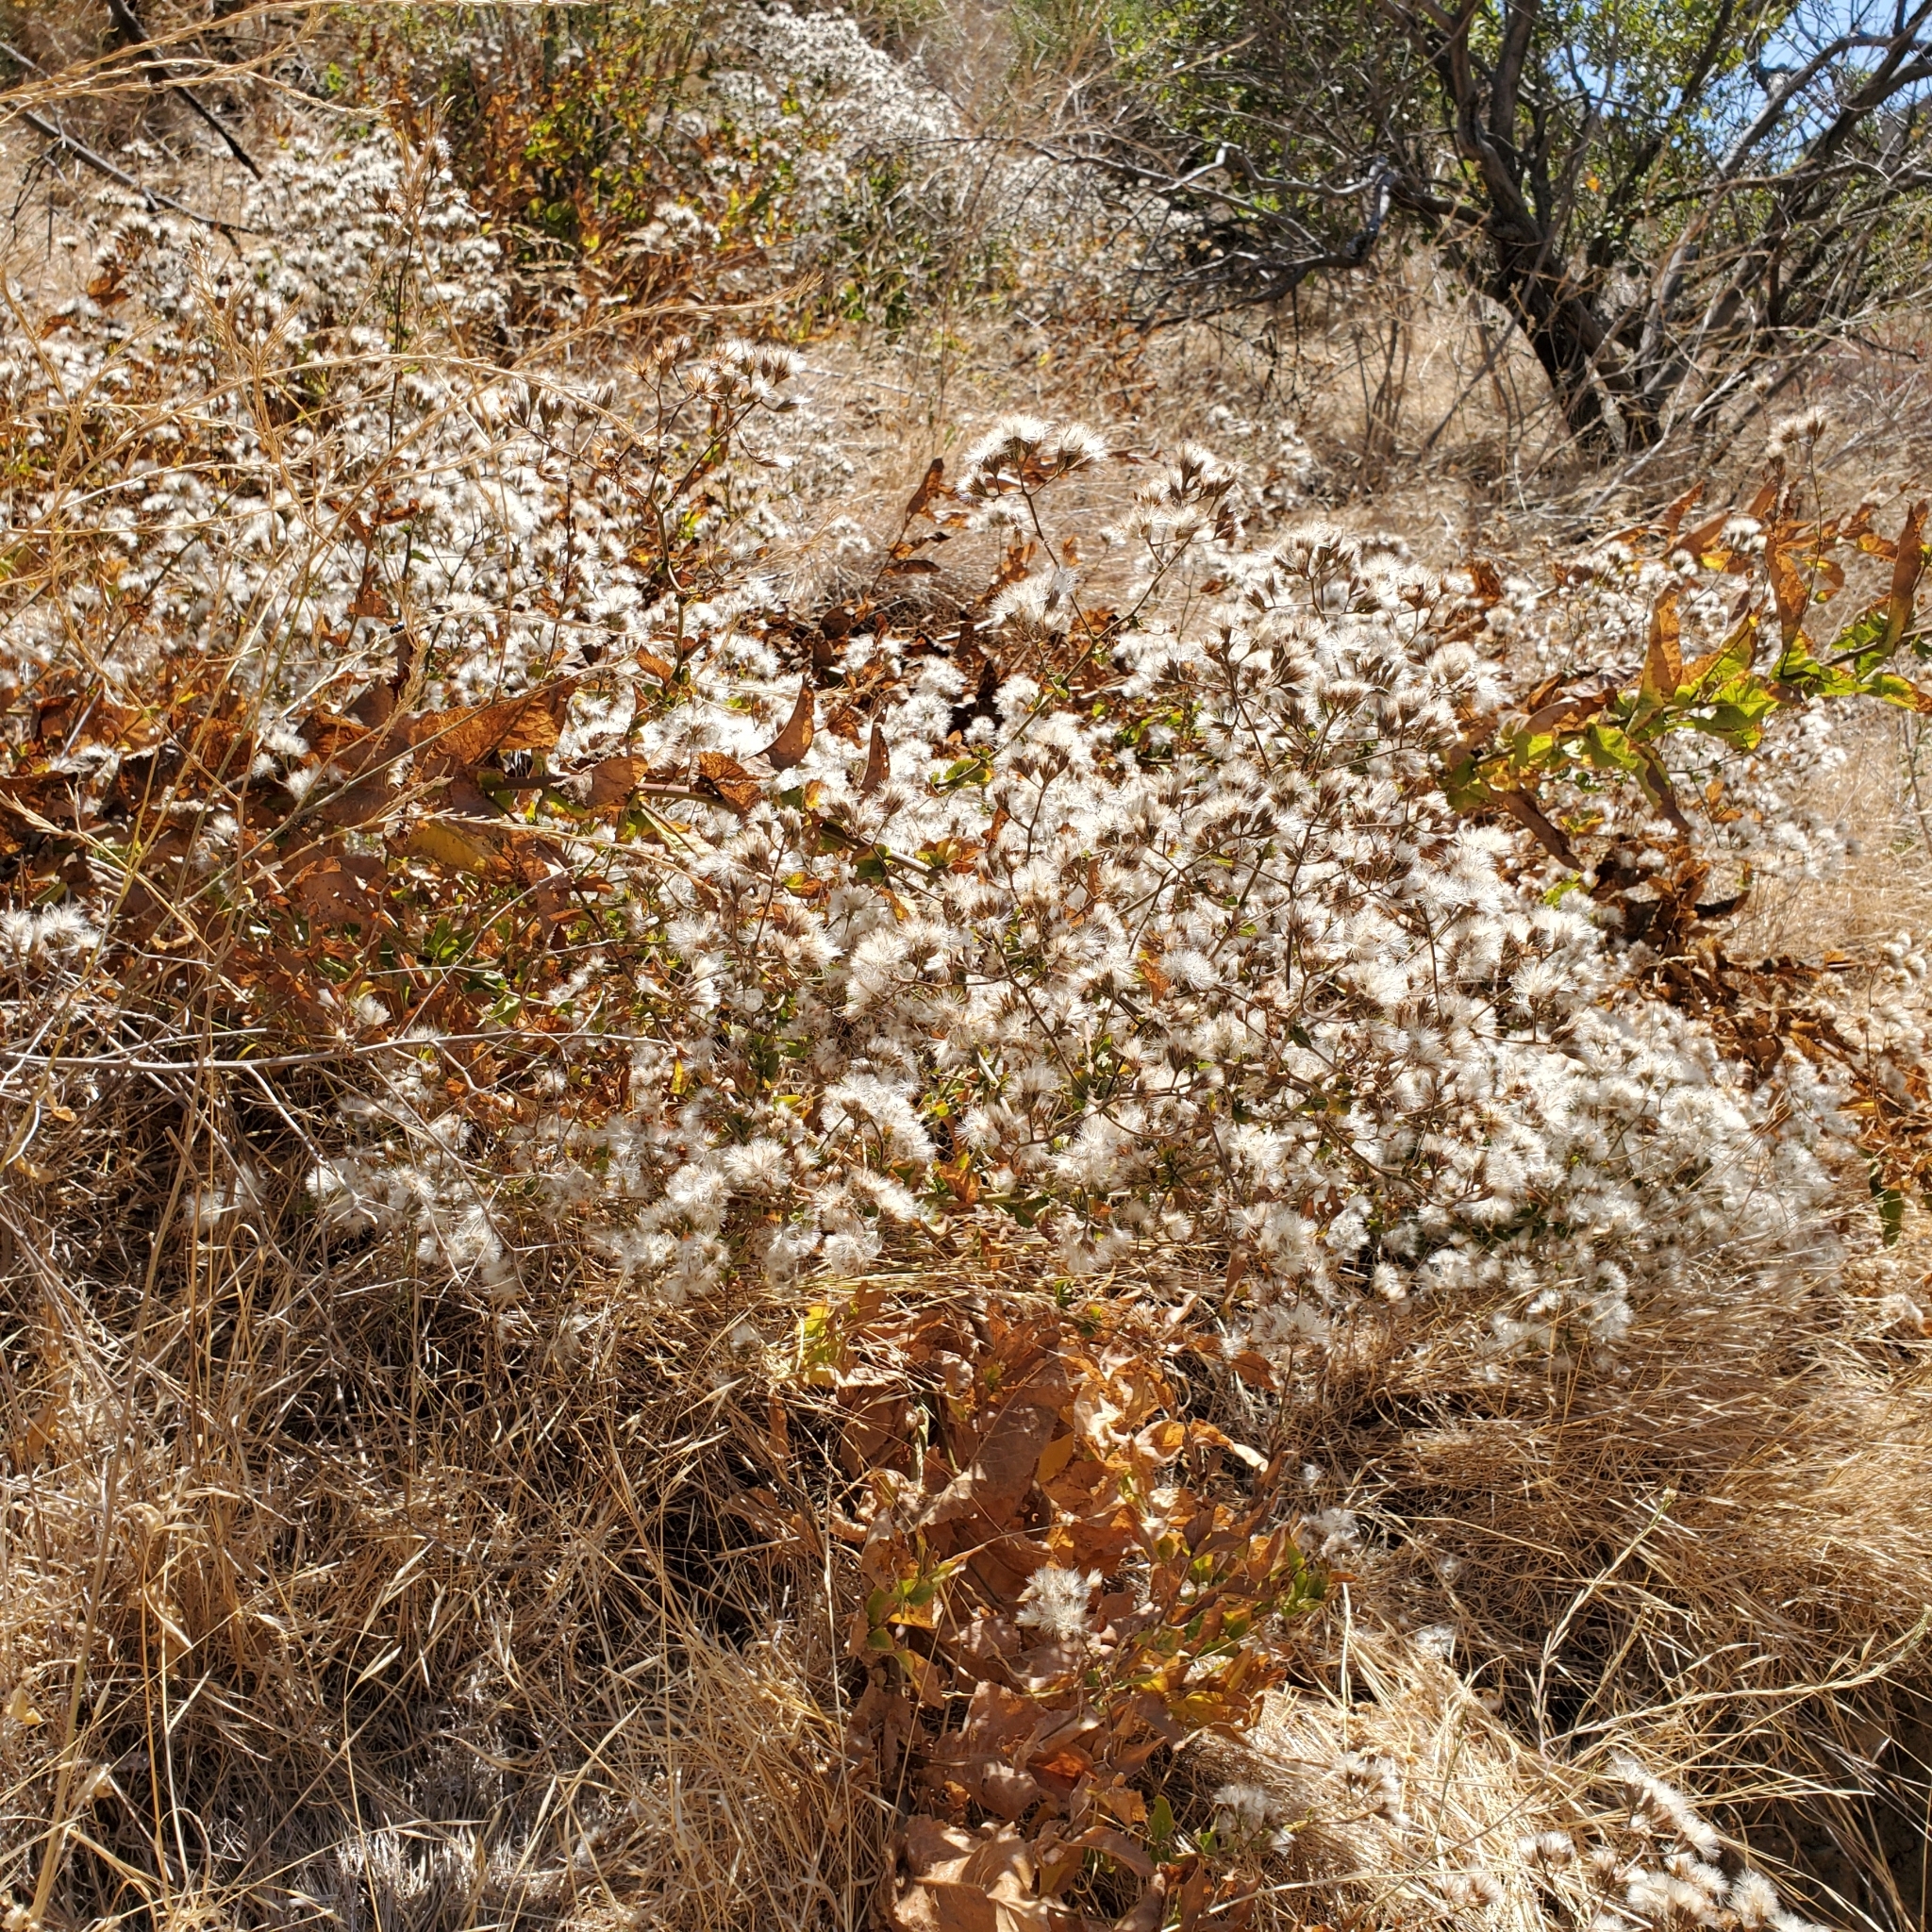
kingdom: Plantae
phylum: Tracheophyta
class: Magnoliopsida
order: Asterales
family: Asteraceae
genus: Acourtia
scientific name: Acourtia microcephala
